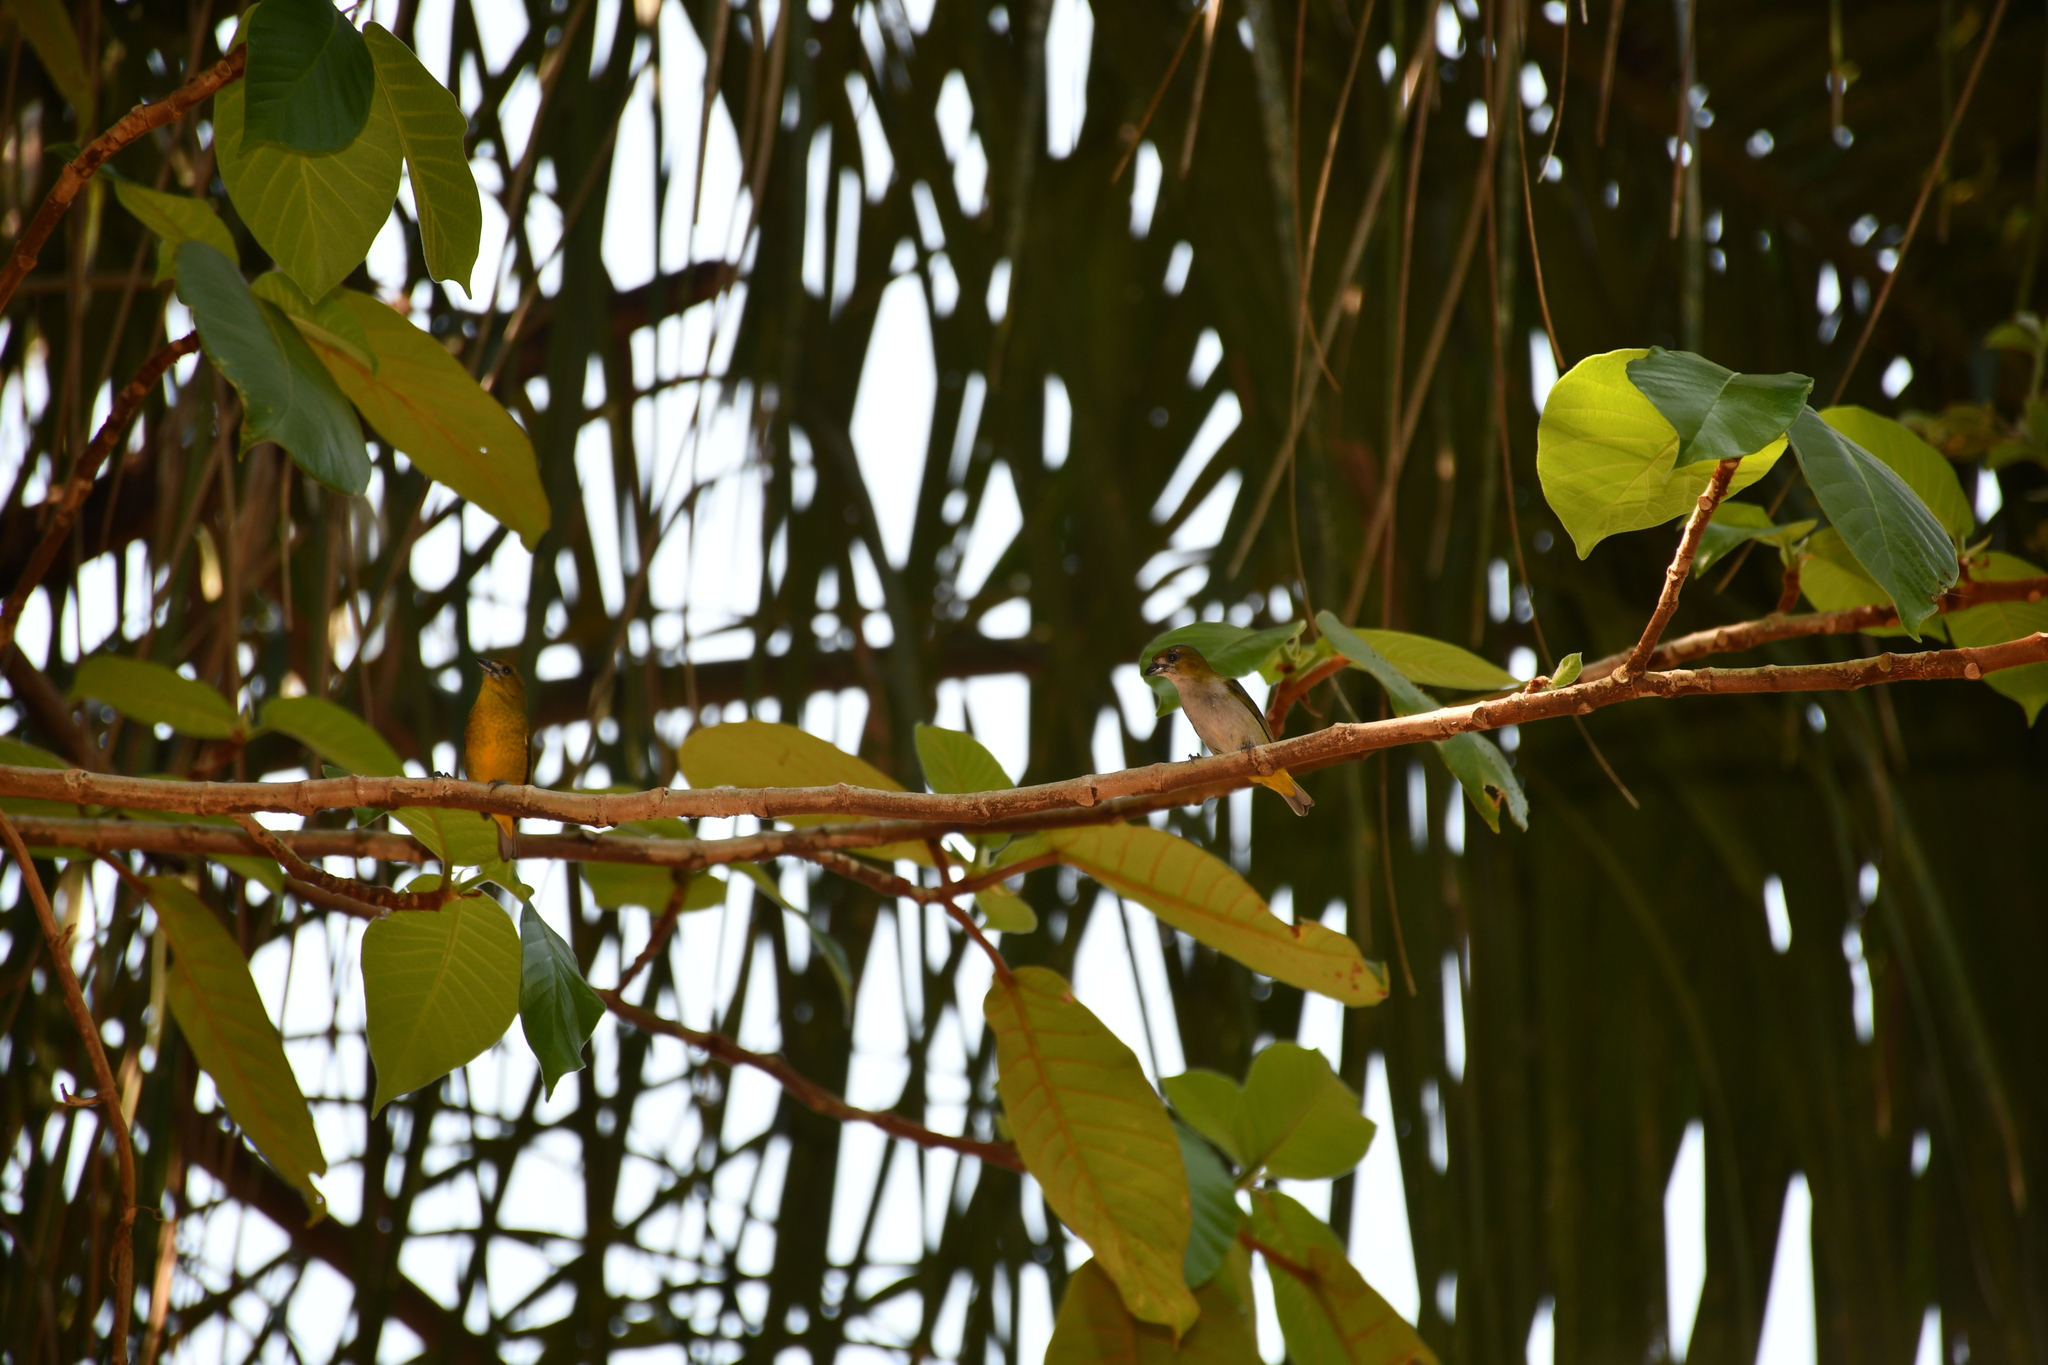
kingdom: Animalia
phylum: Chordata
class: Aves
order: Passeriformes
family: Fringillidae
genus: Euphonia
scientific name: Euphonia chrysopasta
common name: White-lored euphonia
